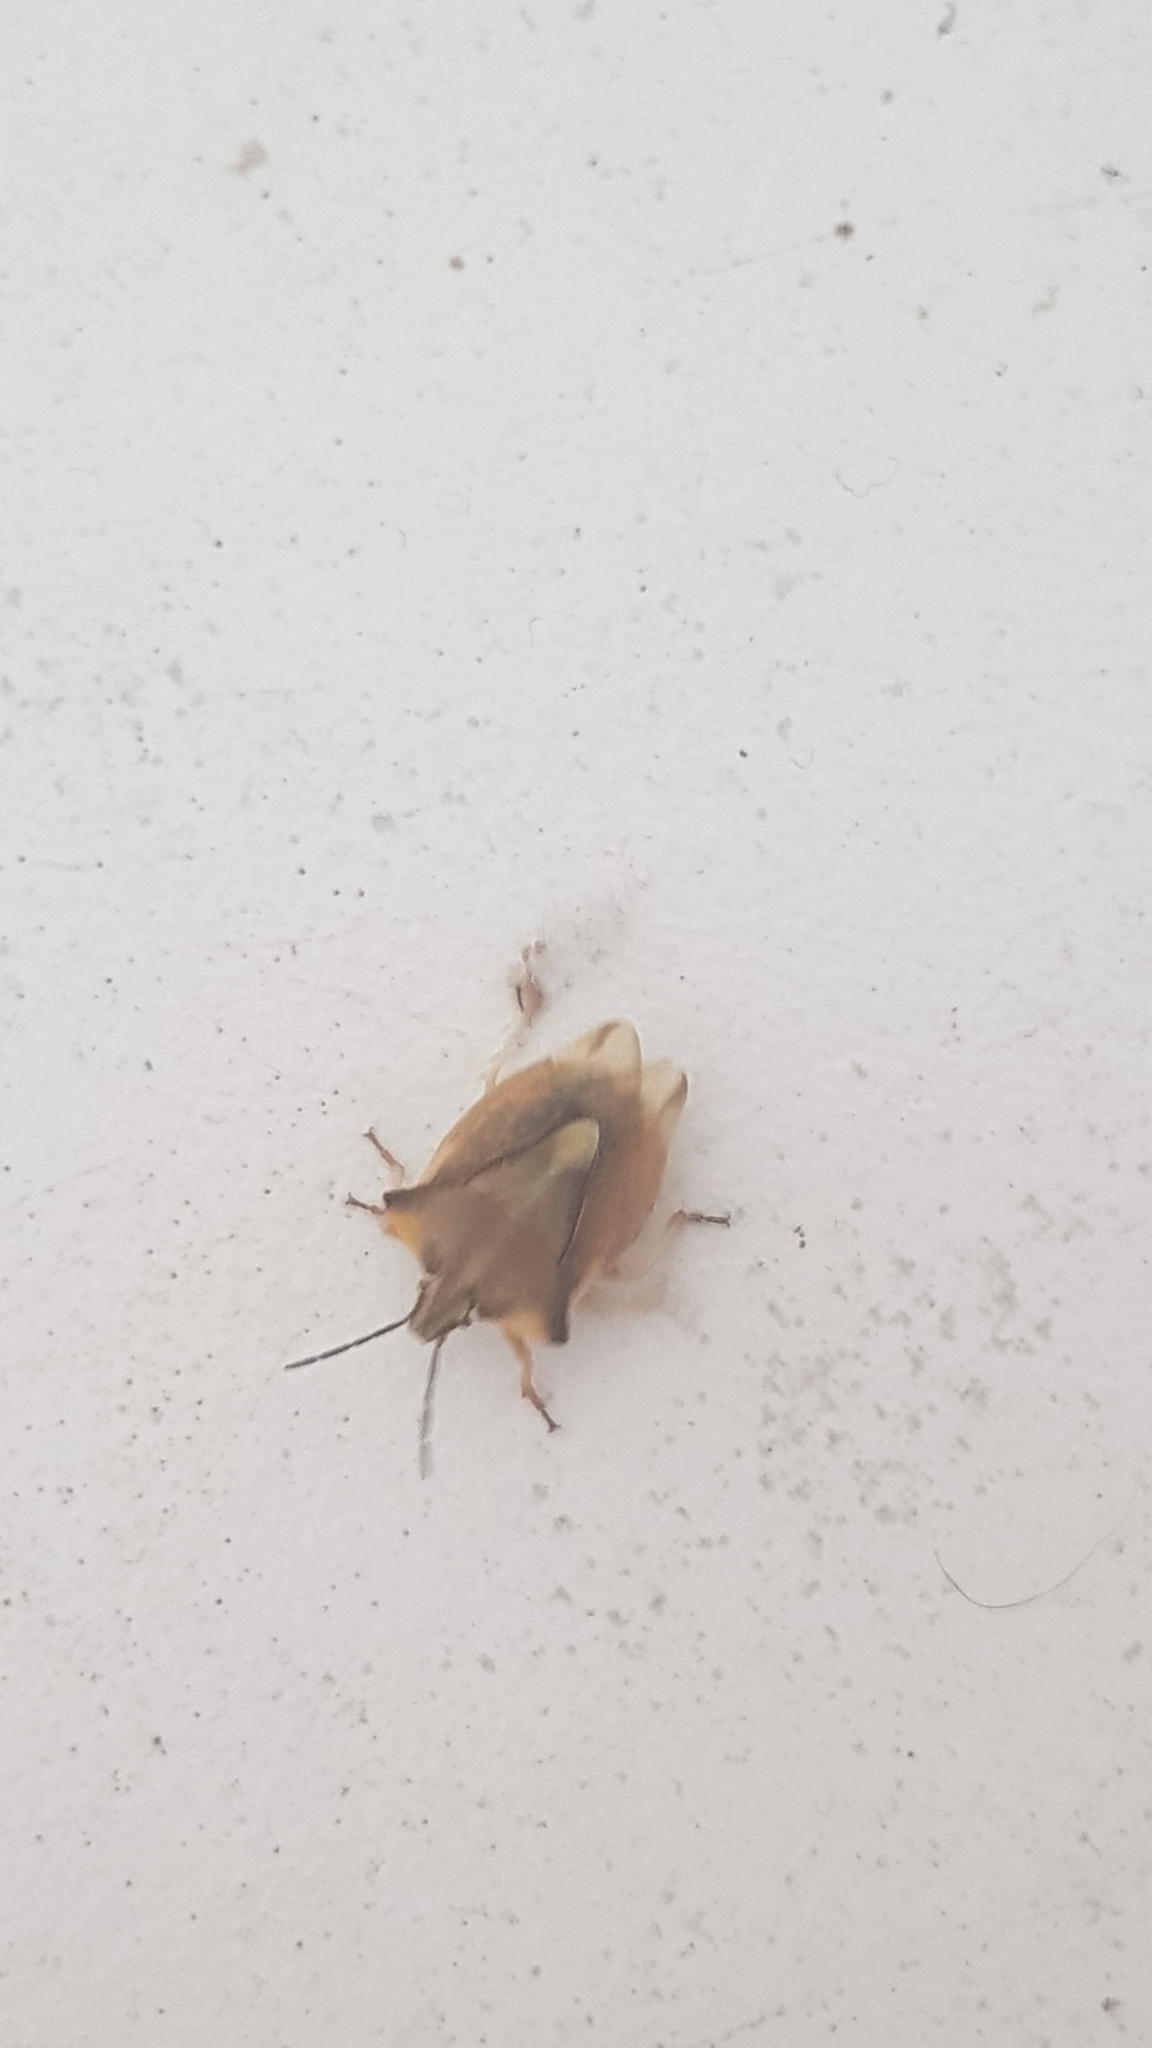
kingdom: Animalia
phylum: Arthropoda
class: Insecta
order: Hemiptera
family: Pentatomidae
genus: Carpocoris
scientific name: Carpocoris fuscispinus
